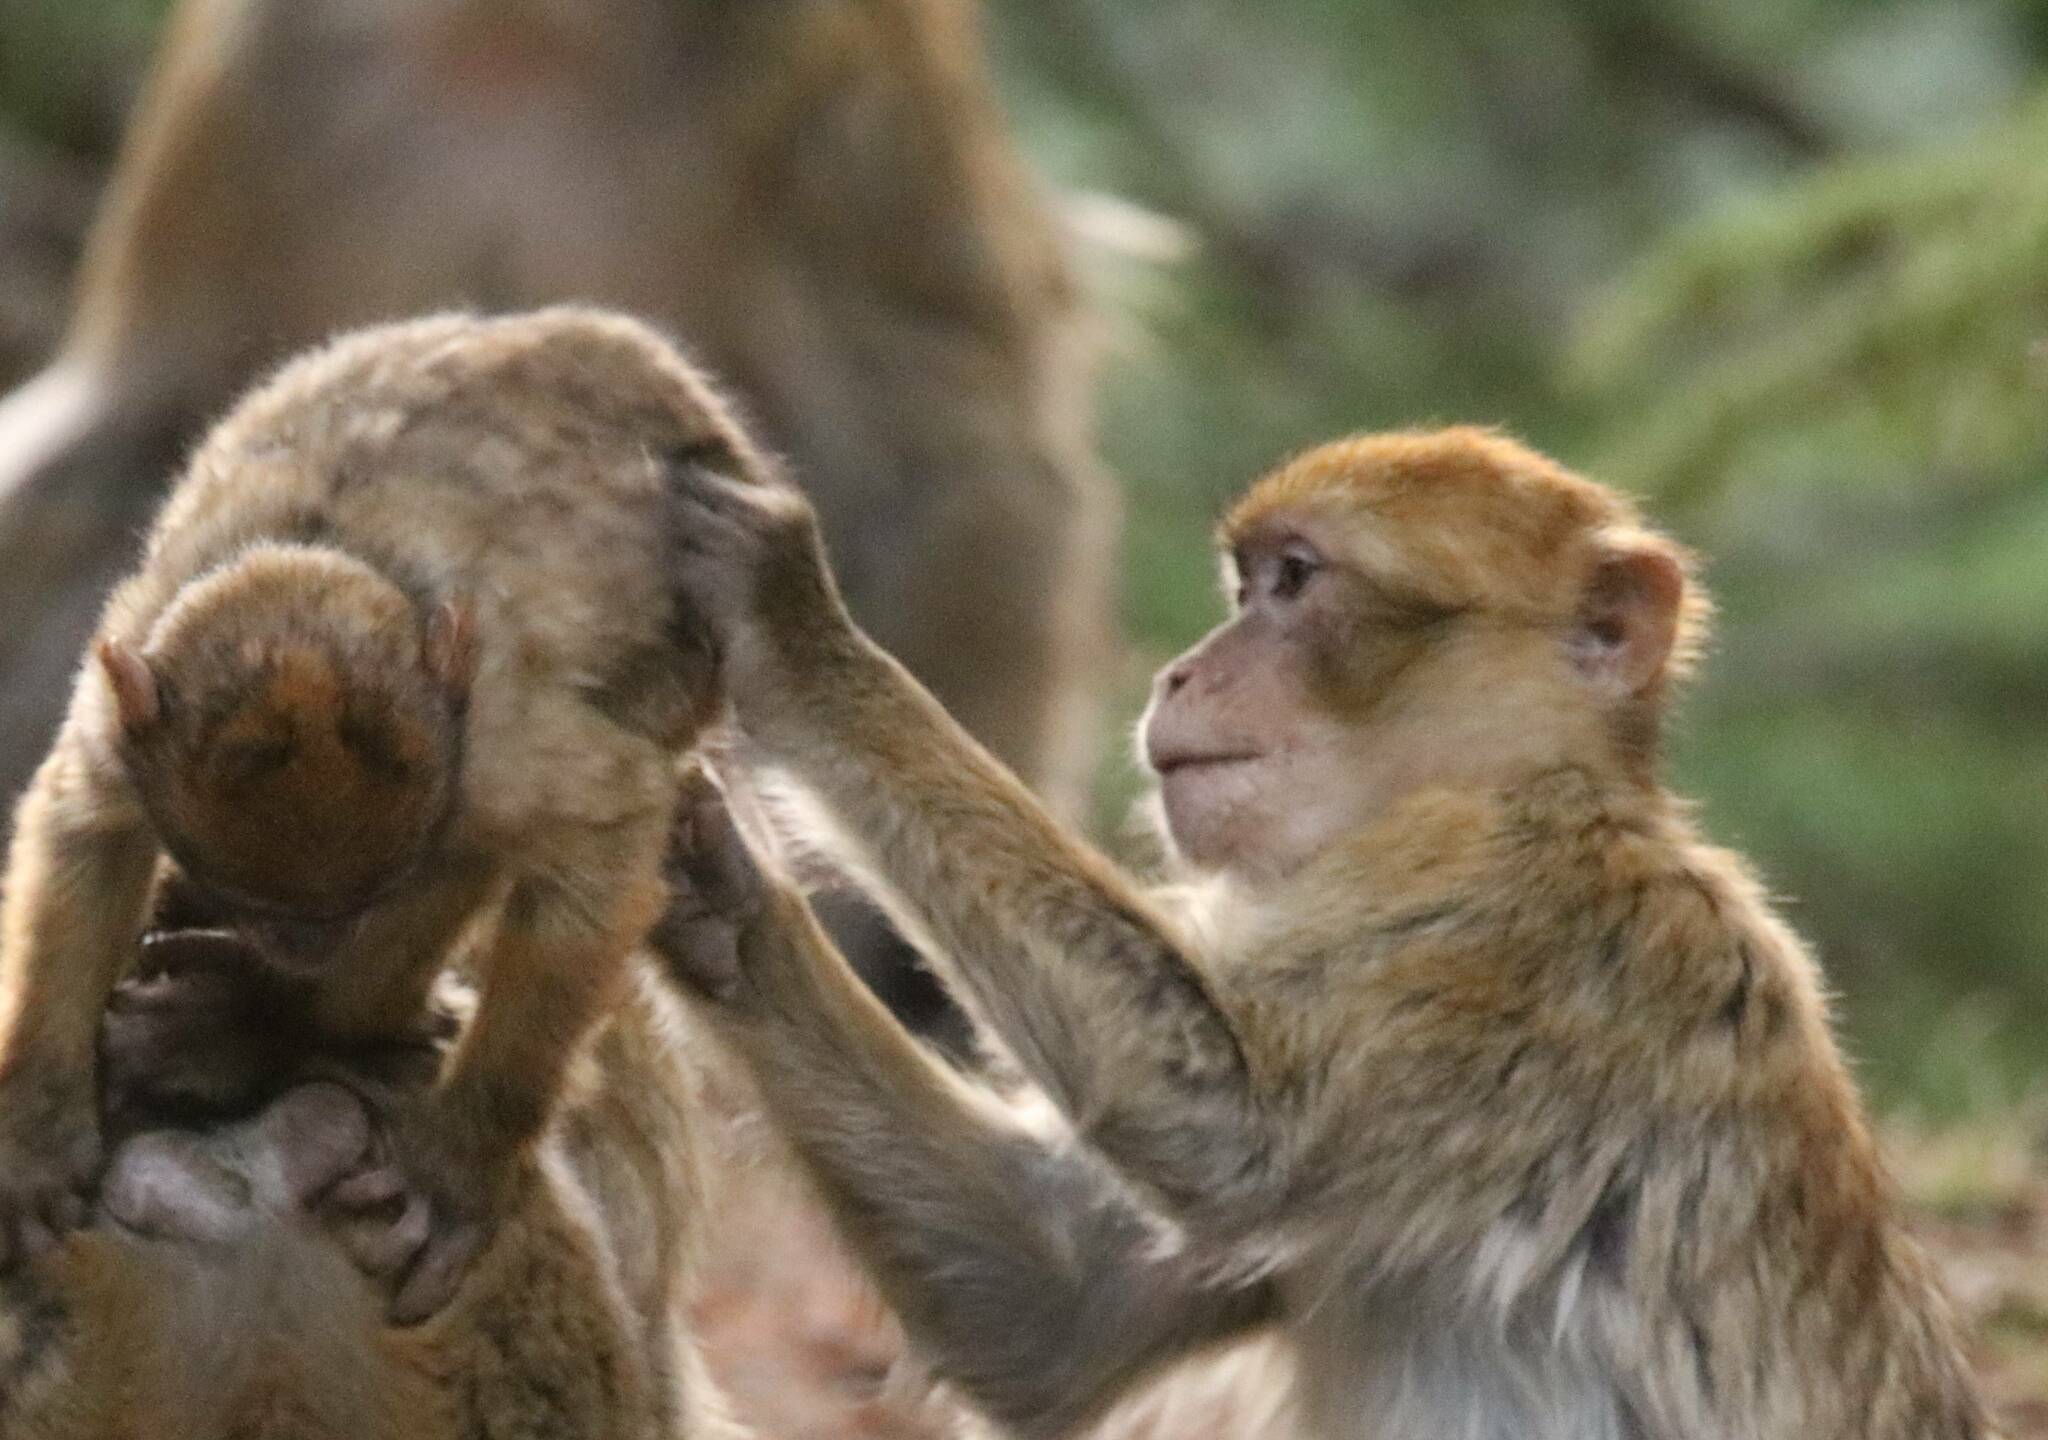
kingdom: Animalia
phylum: Chordata
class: Mammalia
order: Primates
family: Cercopithecidae
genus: Macaca
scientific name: Macaca sylvanus
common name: Barbary macaque
